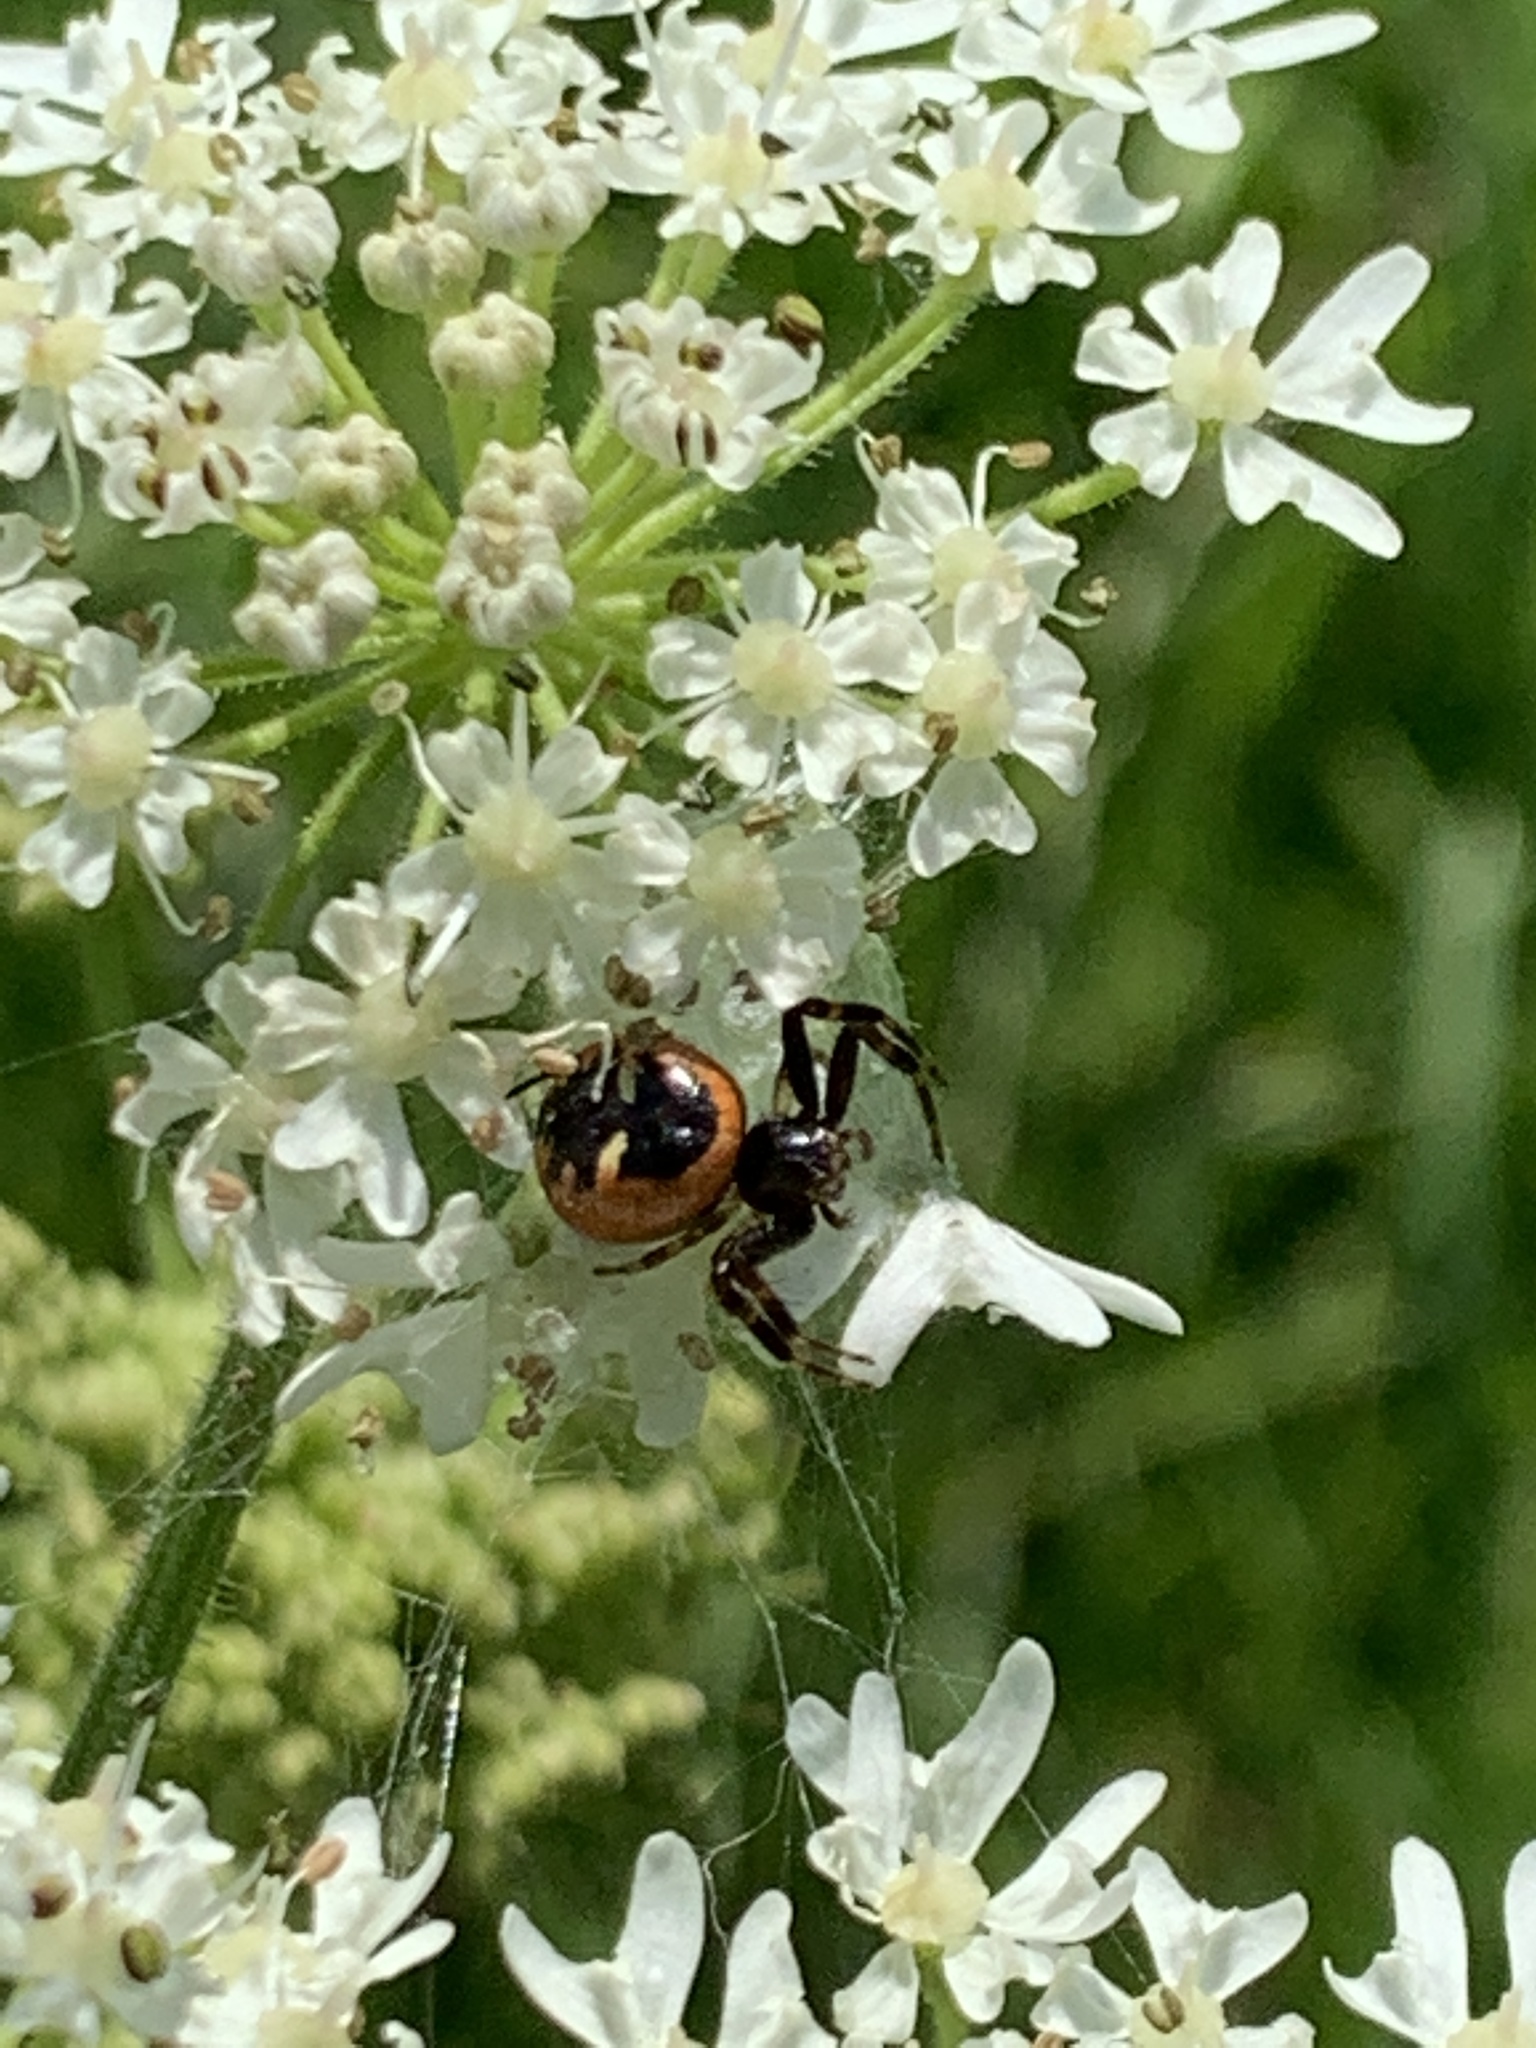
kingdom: Animalia
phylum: Arthropoda
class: Arachnida
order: Araneae
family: Thomisidae
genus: Synema
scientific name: Synema globosum
